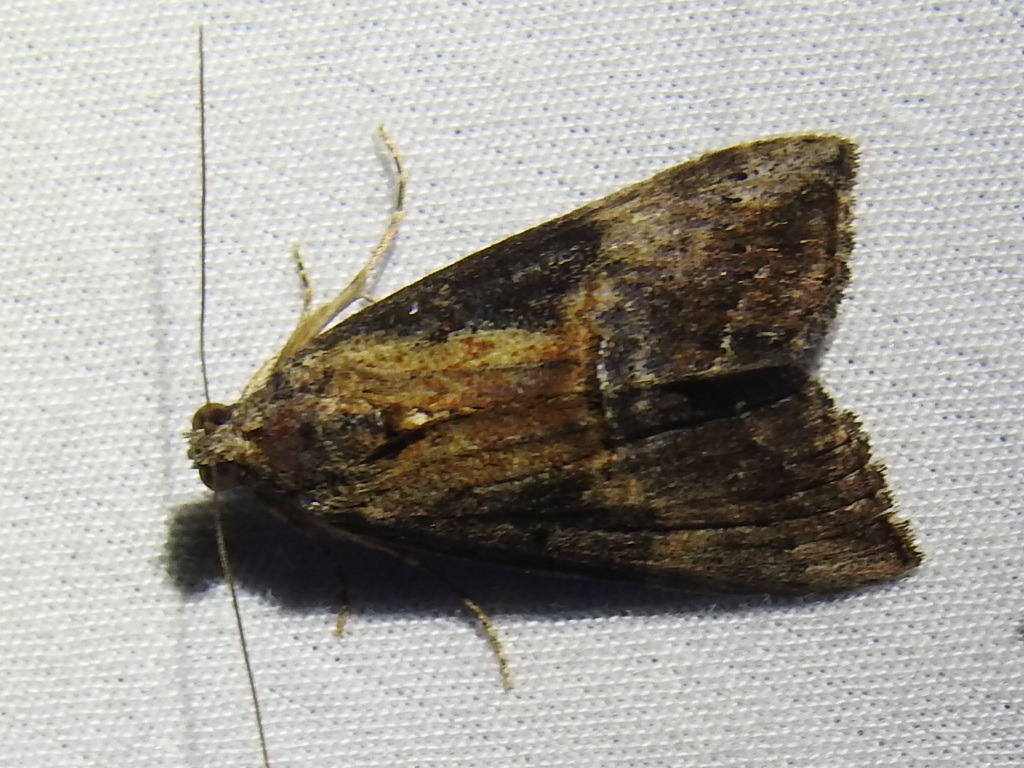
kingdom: Animalia
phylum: Arthropoda
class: Insecta
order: Lepidoptera
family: Erebidae
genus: Hypena
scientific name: Hypena scabra
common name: Green cloverworm
